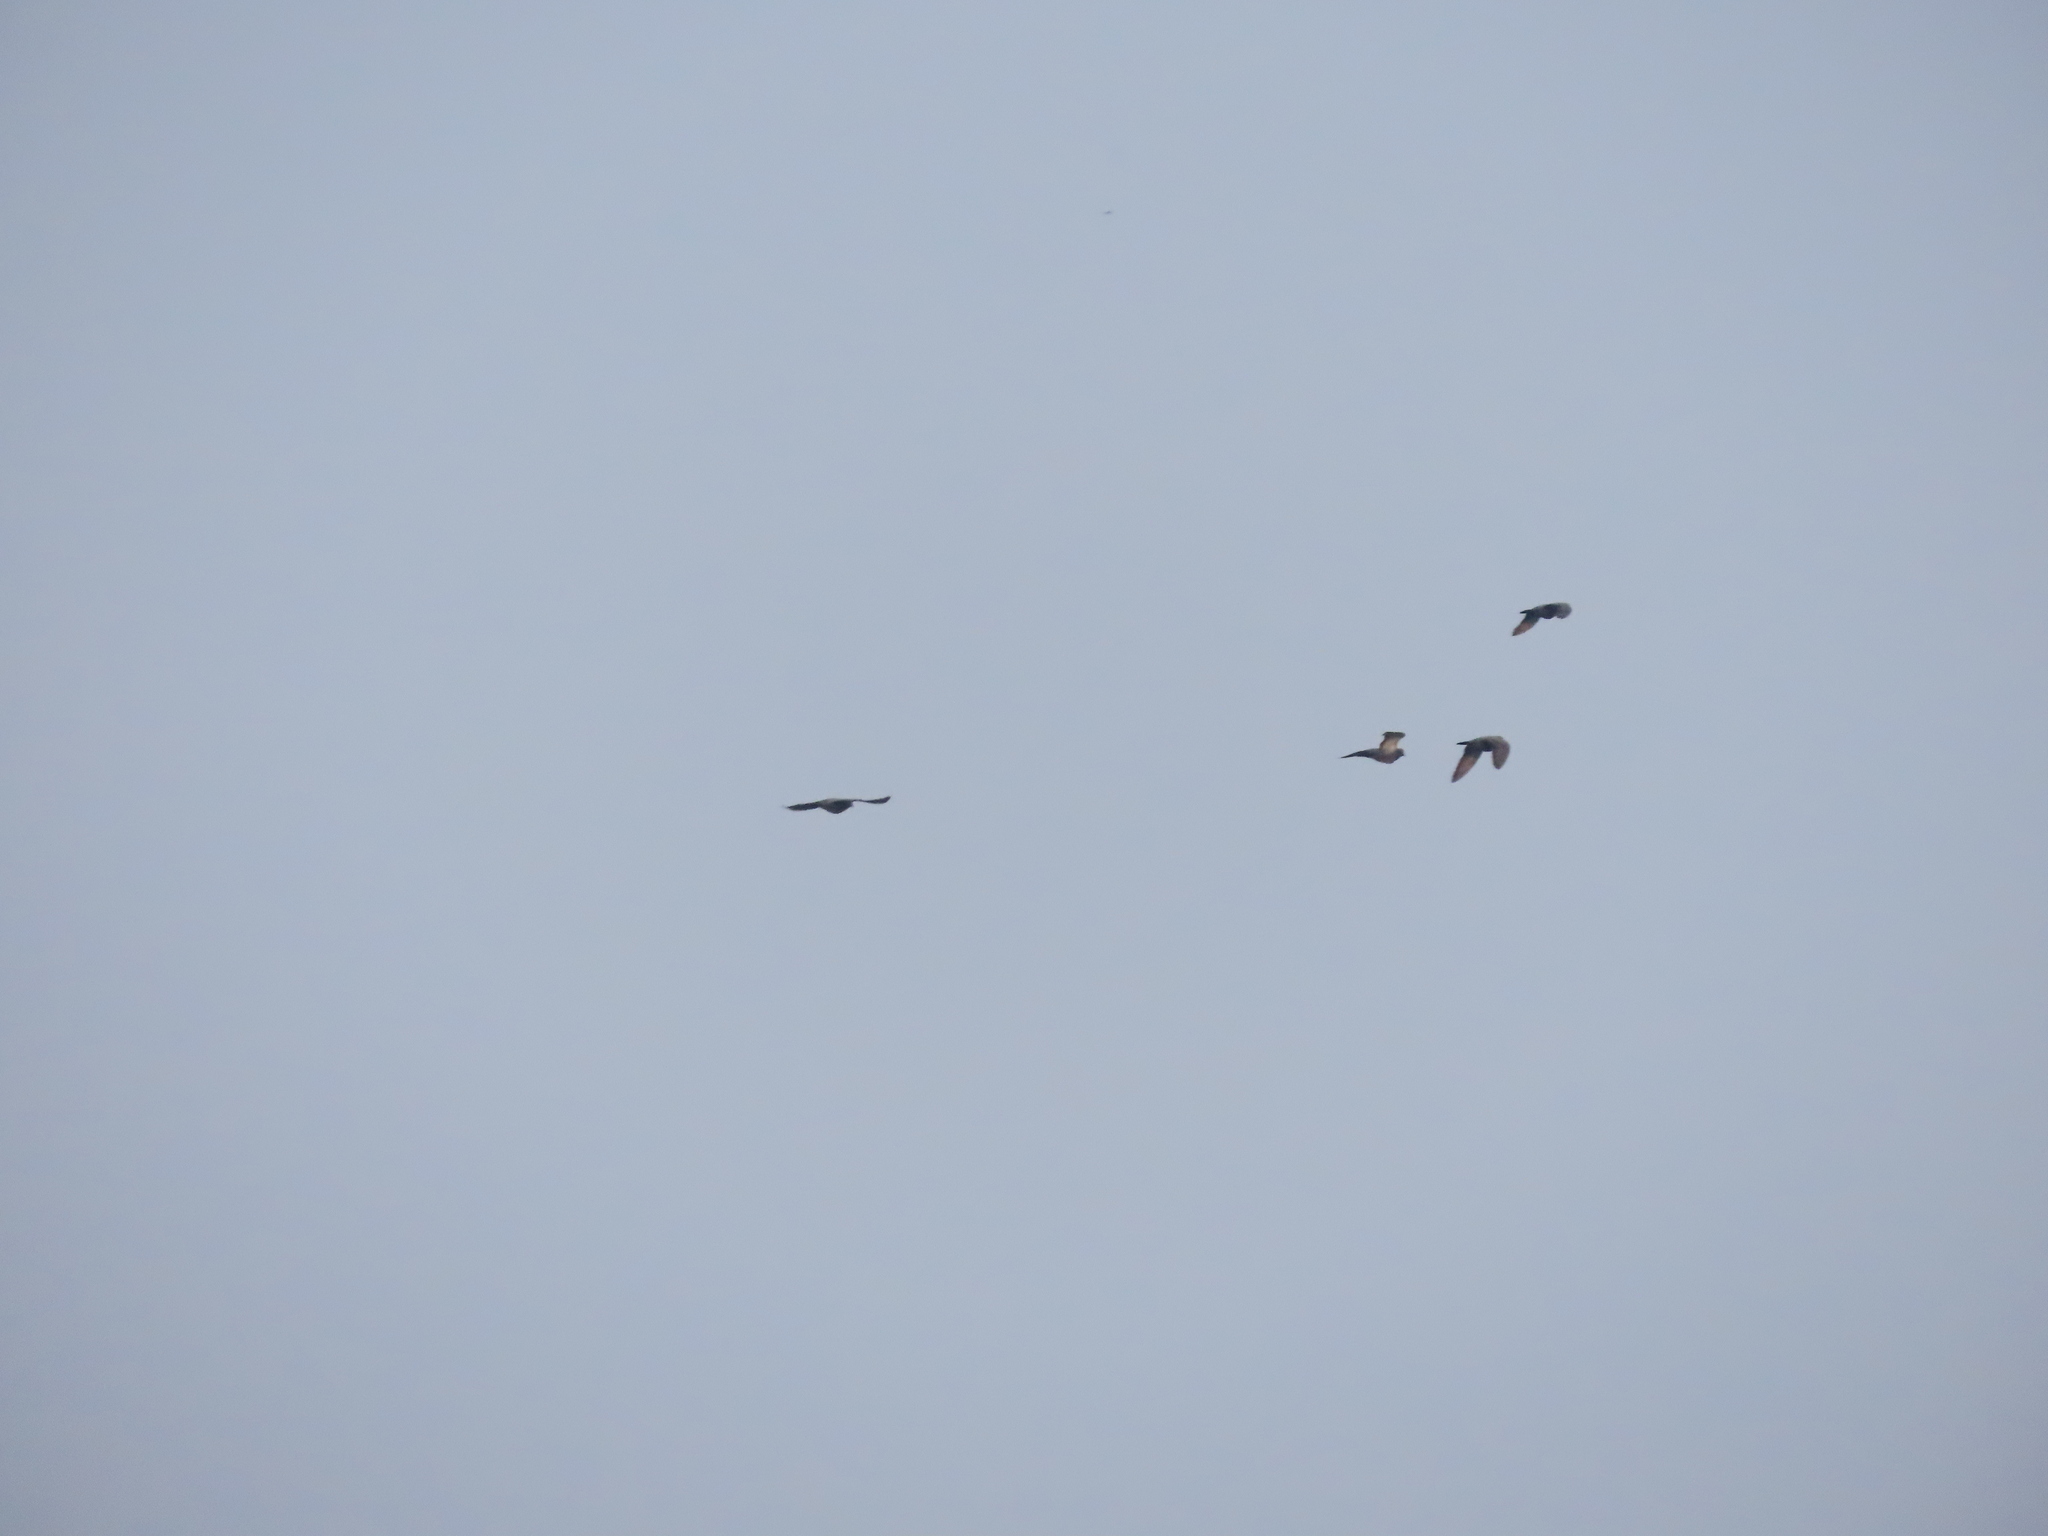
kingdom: Animalia
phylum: Chordata
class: Aves
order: Columbiformes
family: Columbidae
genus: Columba
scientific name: Columba livia
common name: Rock pigeon
